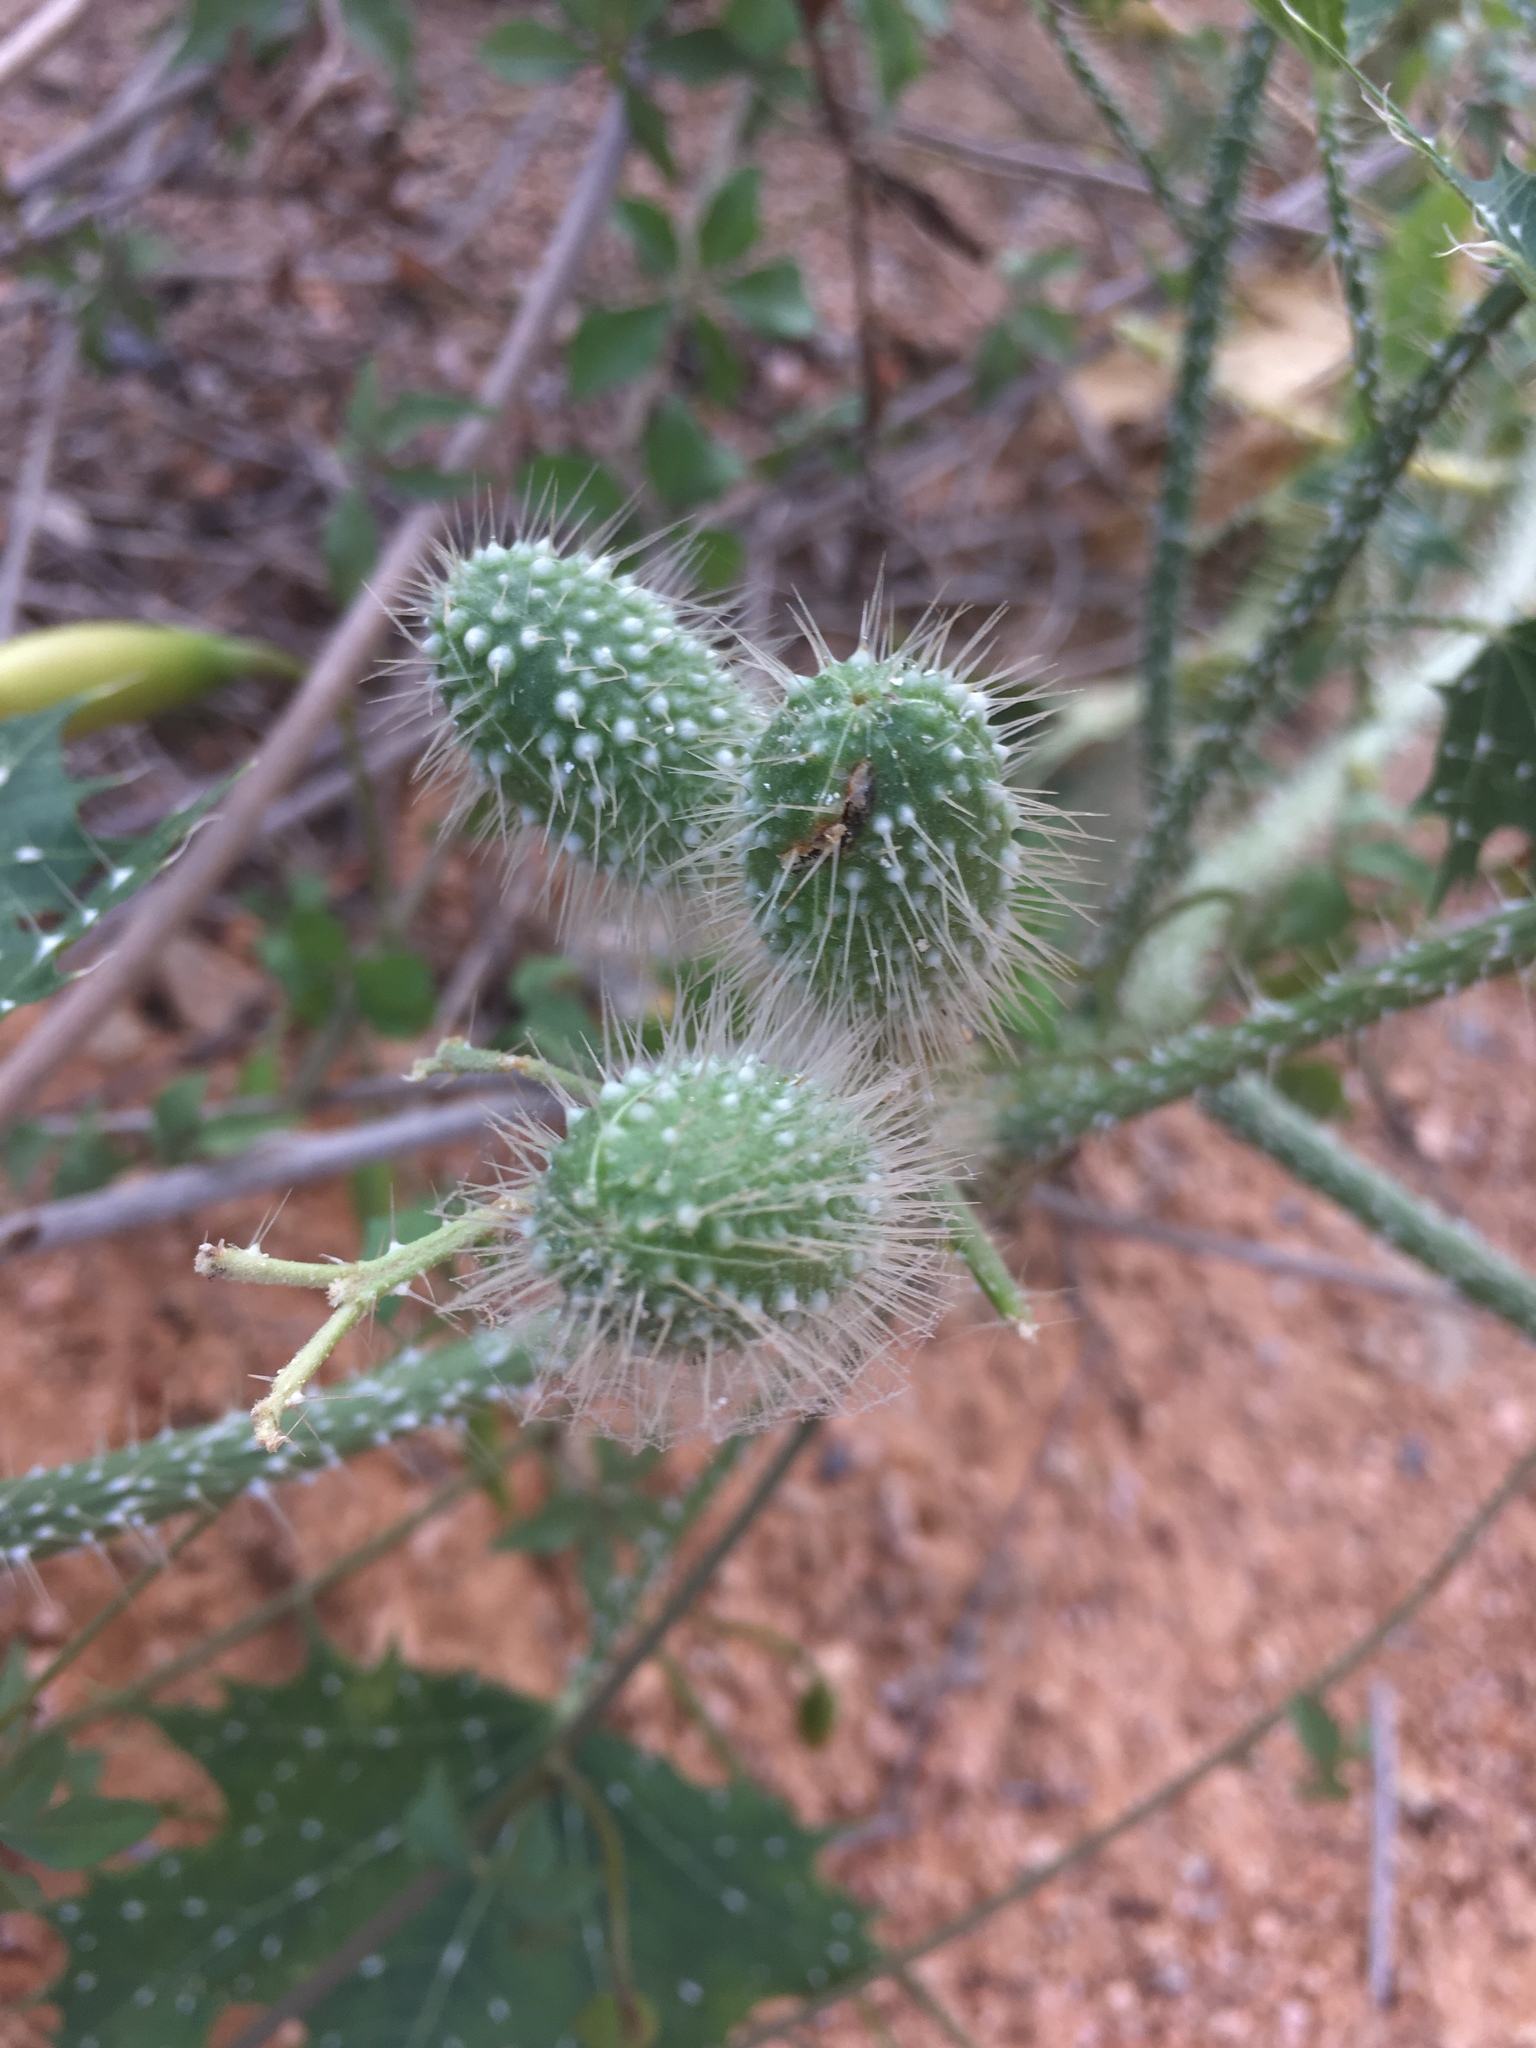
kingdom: Plantae
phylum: Tracheophyta
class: Magnoliopsida
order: Malpighiales
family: Euphorbiaceae
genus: Cnidoscolus
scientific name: Cnidoscolus maculatus
